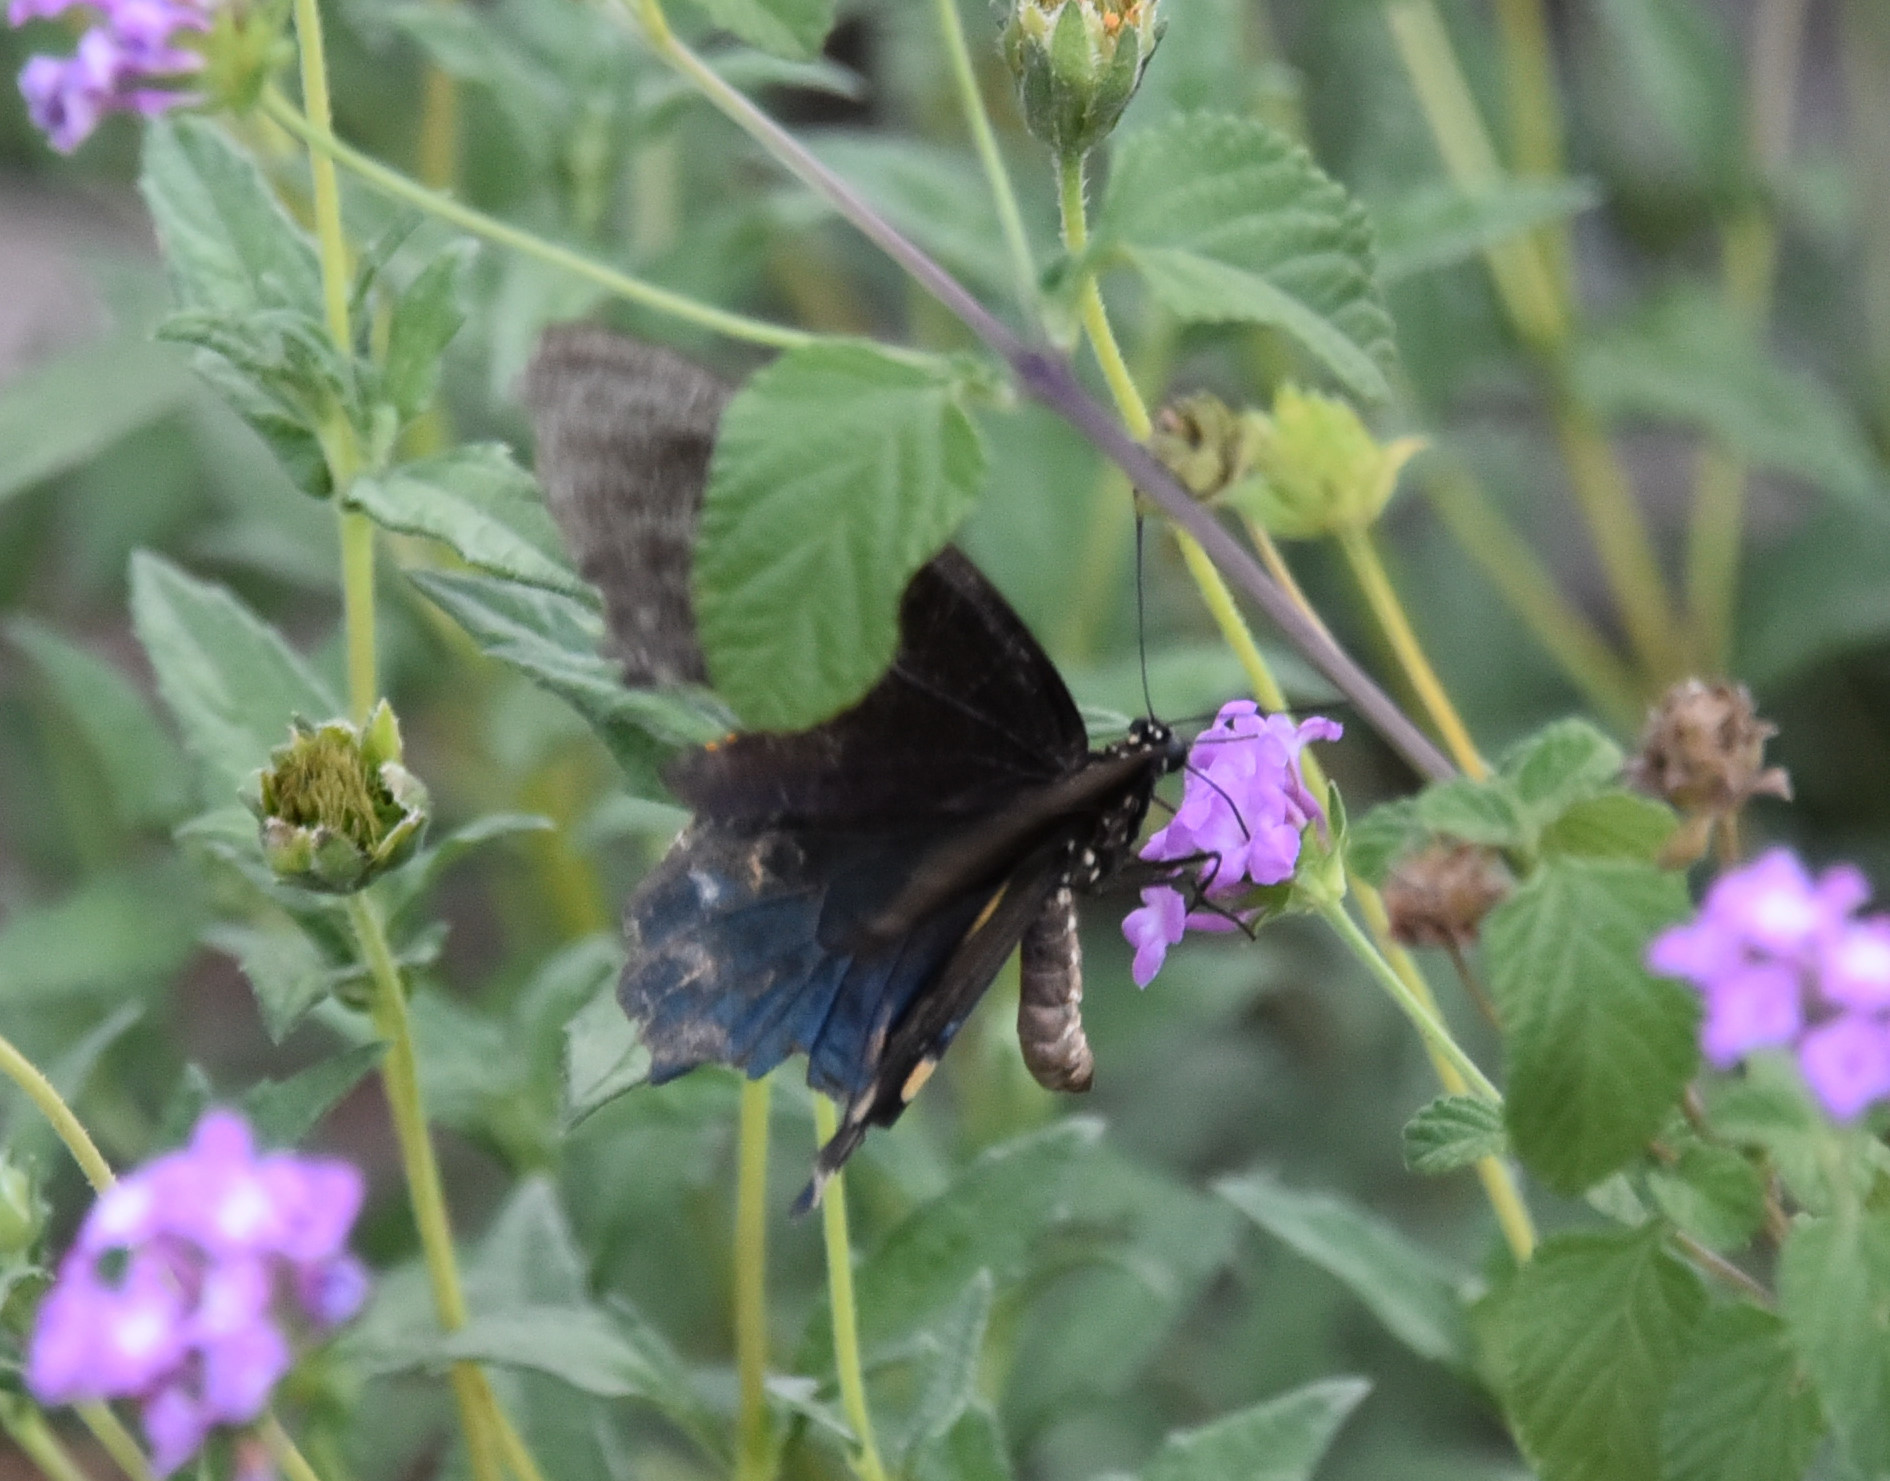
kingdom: Animalia
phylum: Arthropoda
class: Insecta
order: Lepidoptera
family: Papilionidae
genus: Battus
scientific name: Battus philenor
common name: Pipevine swallowtail
